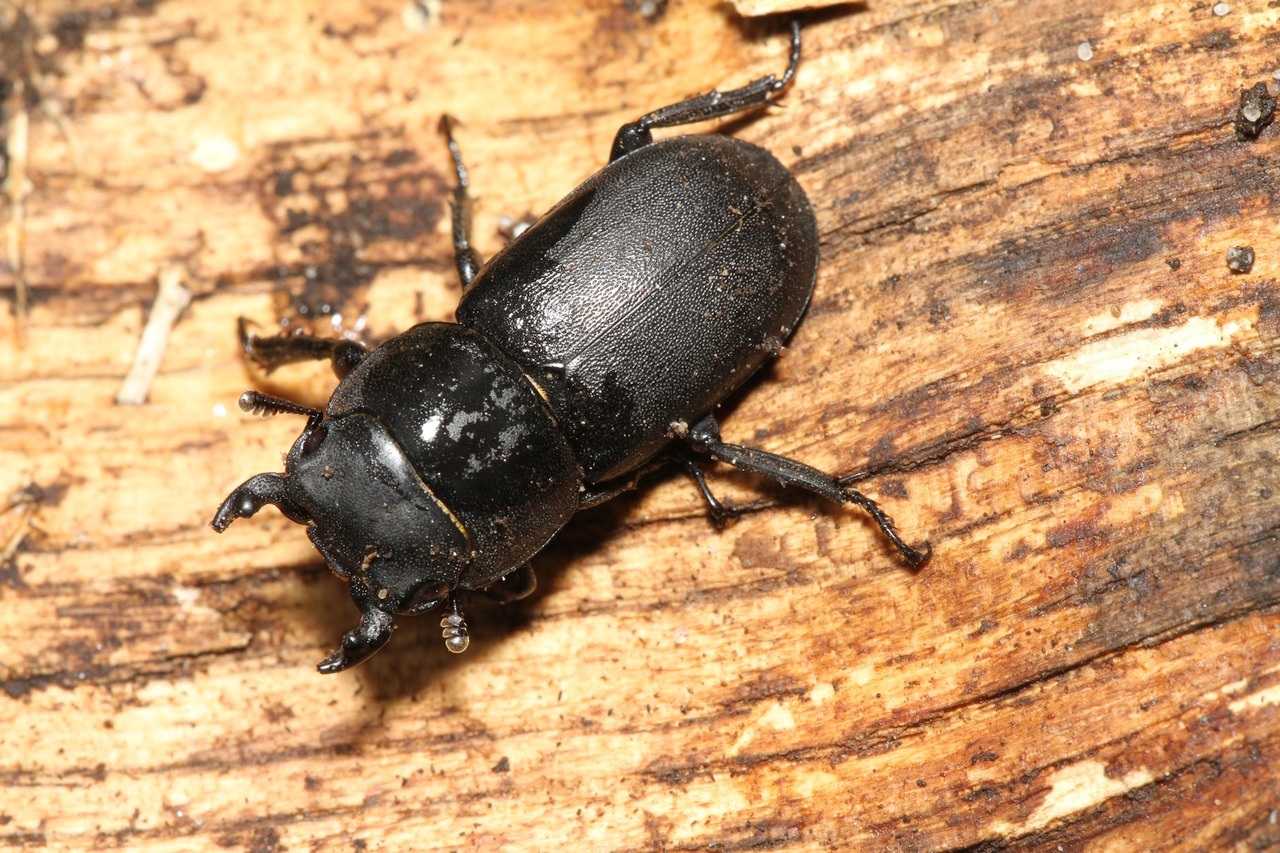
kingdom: Animalia
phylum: Arthropoda
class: Insecta
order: Coleoptera
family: Lucanidae
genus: Dorcus
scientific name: Dorcus parallelipipedus
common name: Lesser stag beetle
